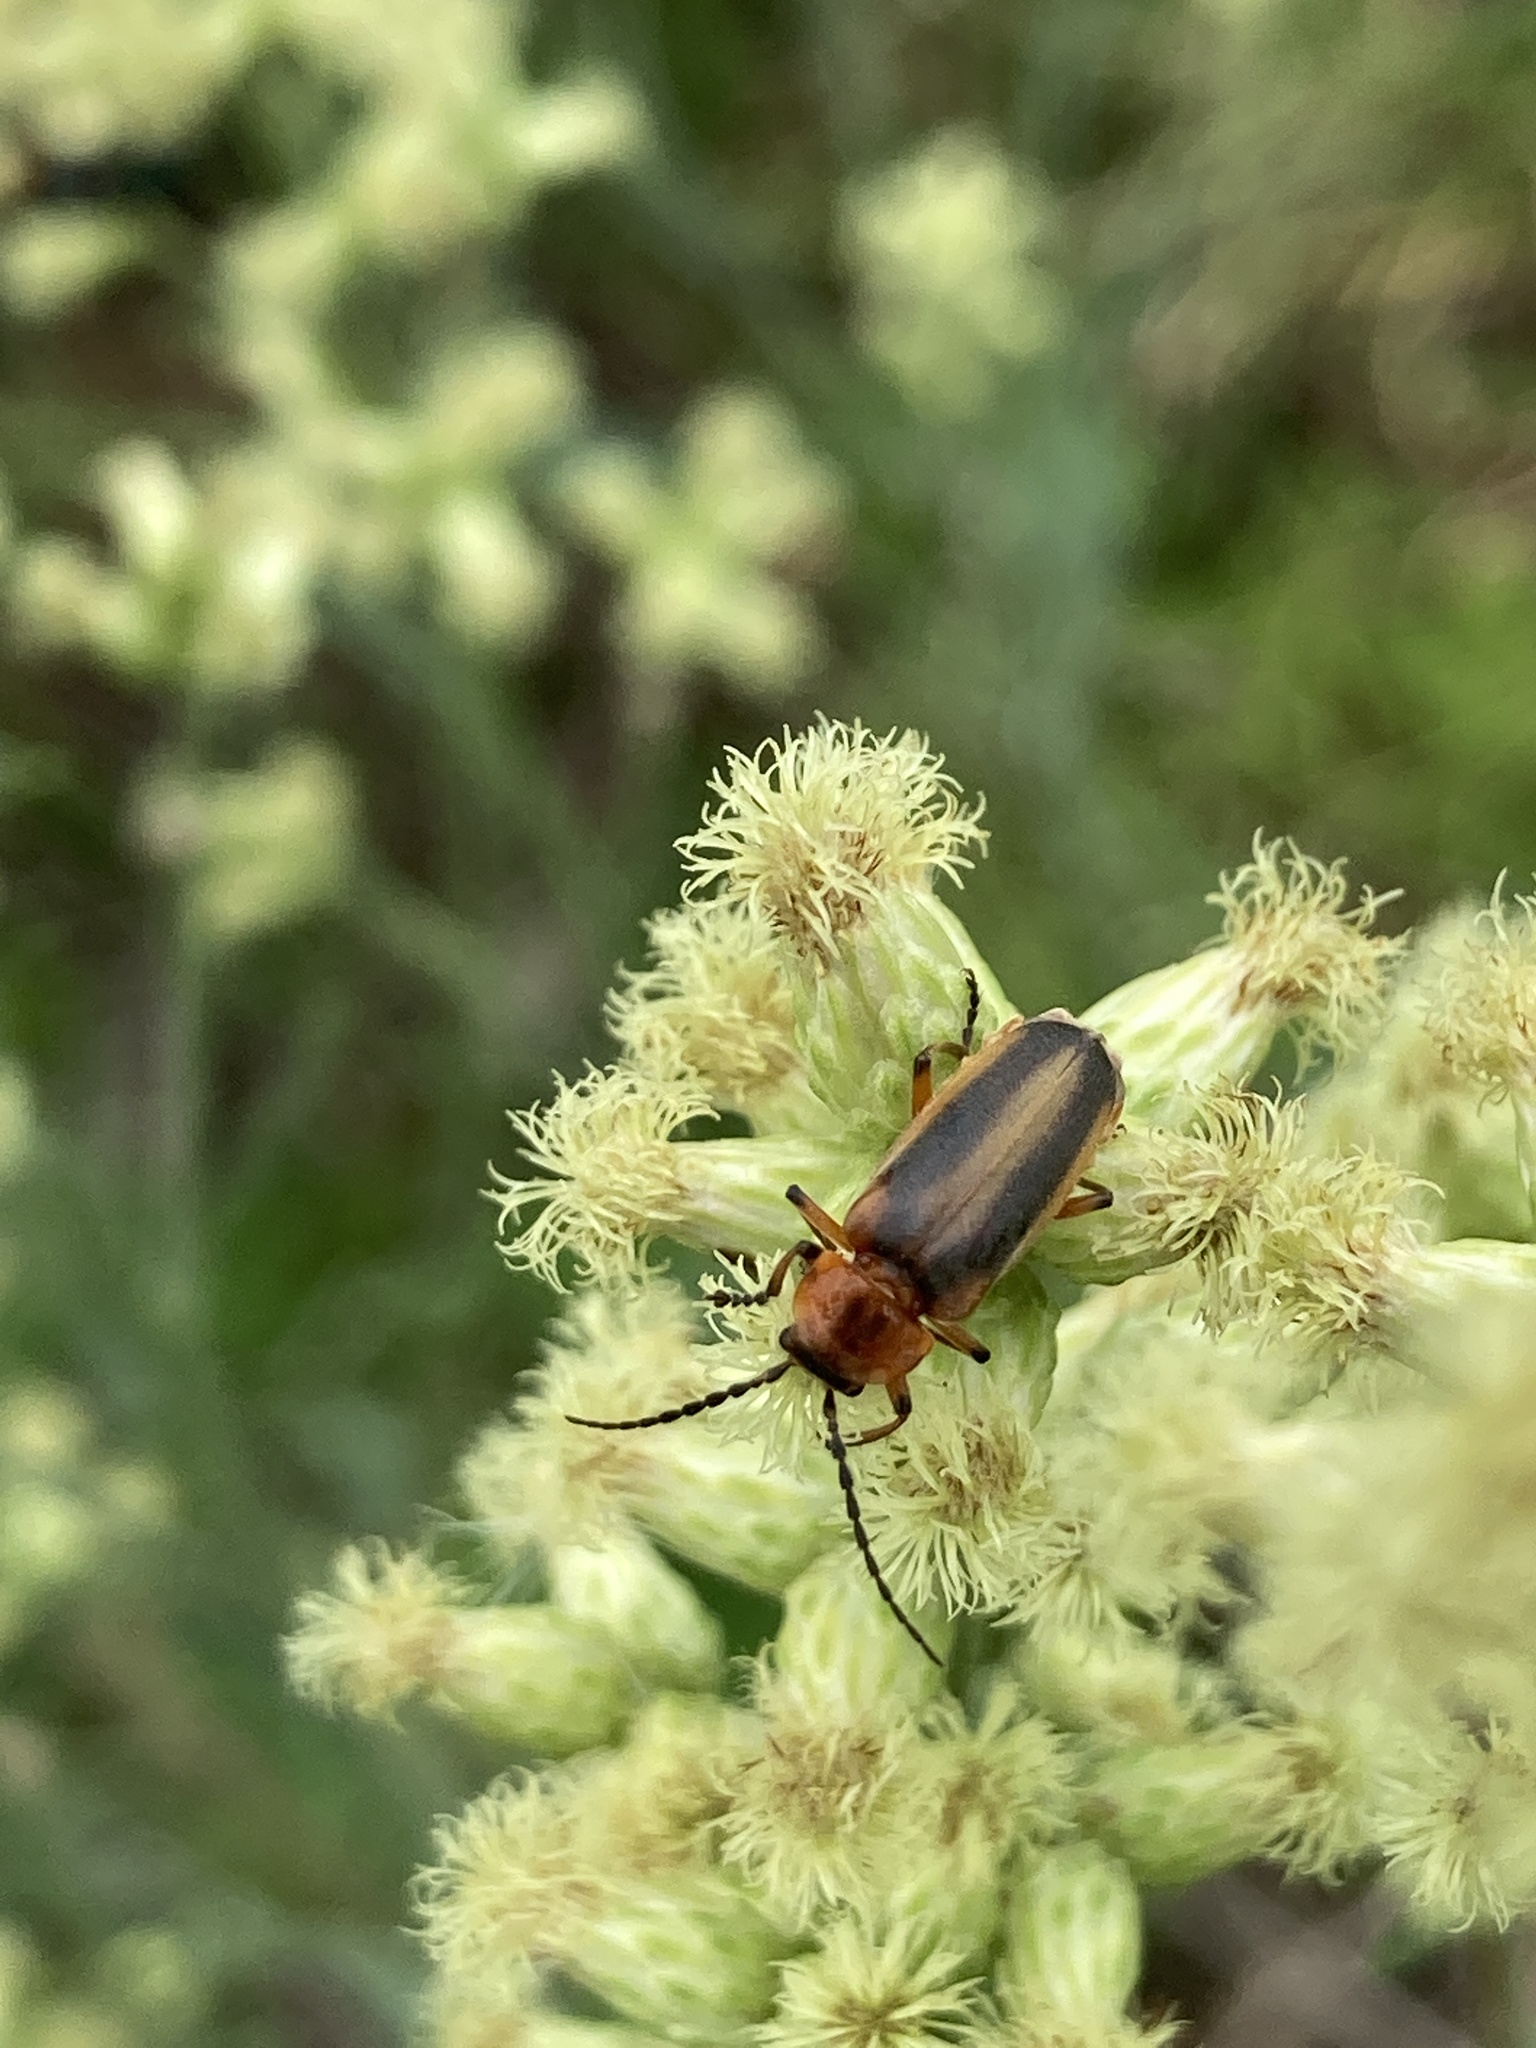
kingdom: Animalia
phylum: Arthropoda
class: Insecta
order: Coleoptera
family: Cantharidae
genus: Discodon
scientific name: Discodon
